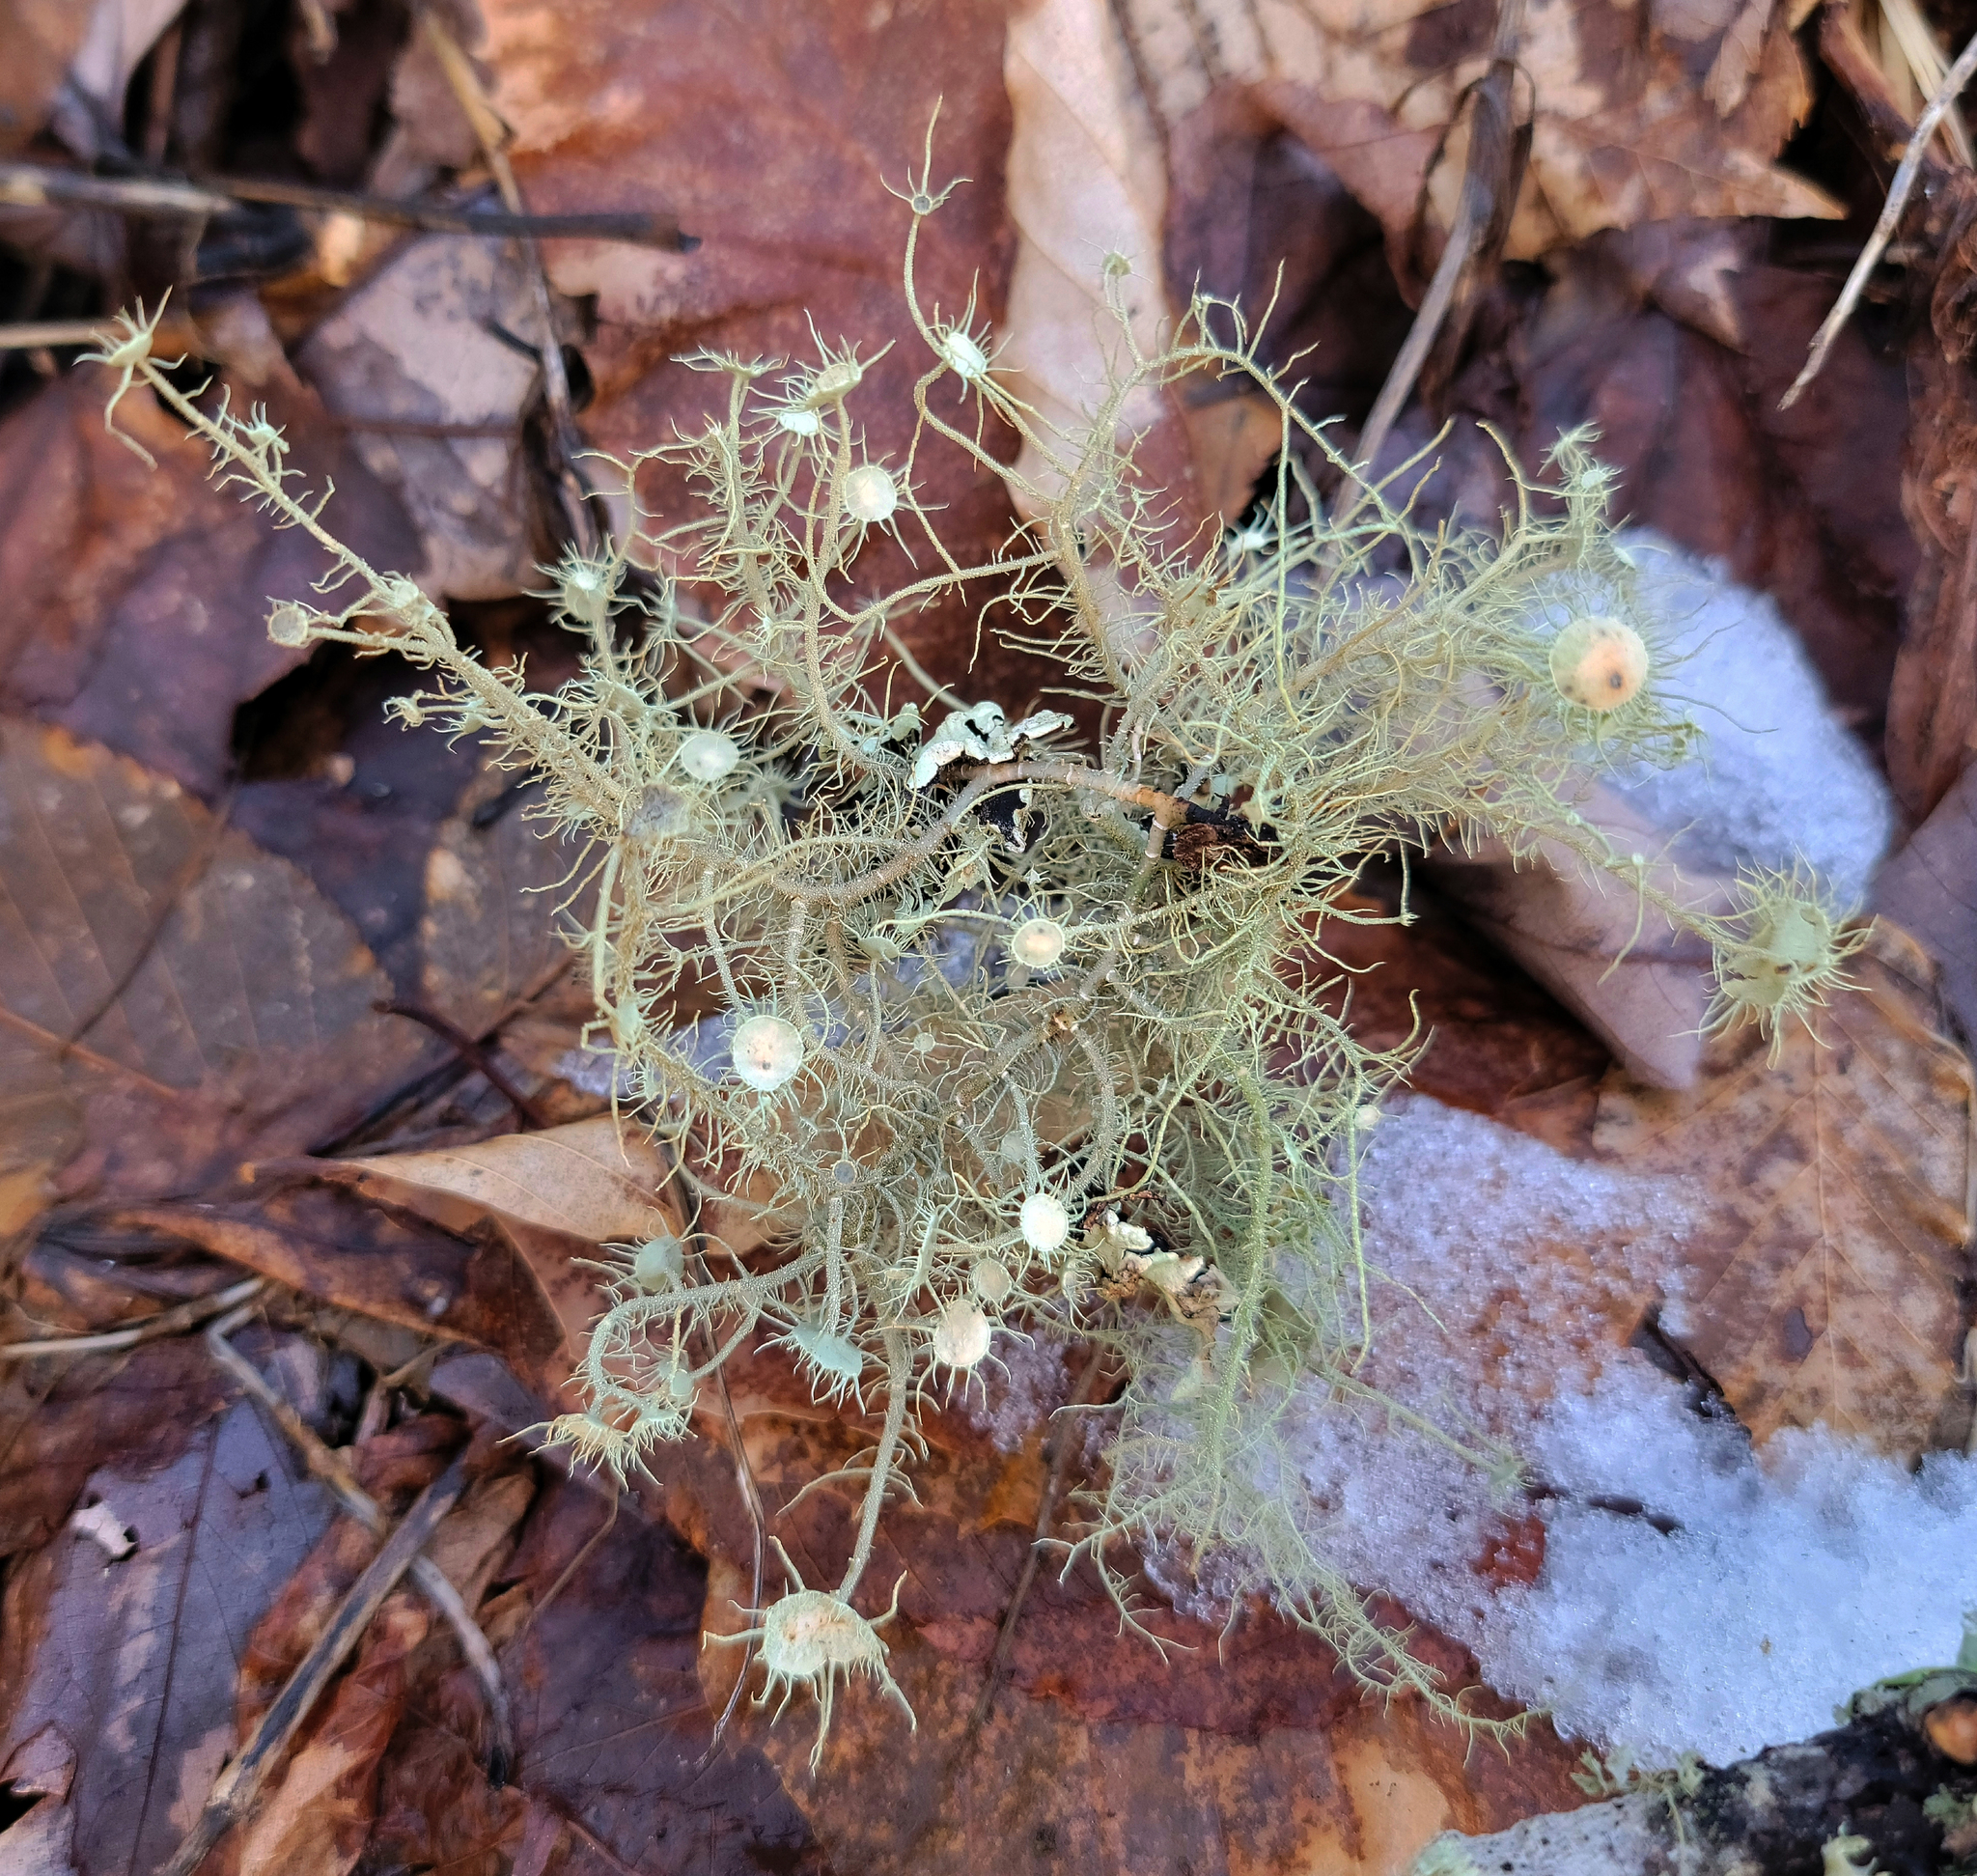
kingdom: Fungi
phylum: Ascomycota
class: Lecanoromycetes
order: Lecanorales
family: Parmeliaceae
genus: Usnea
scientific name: Usnea strigosa
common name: Bushy beard lichen
